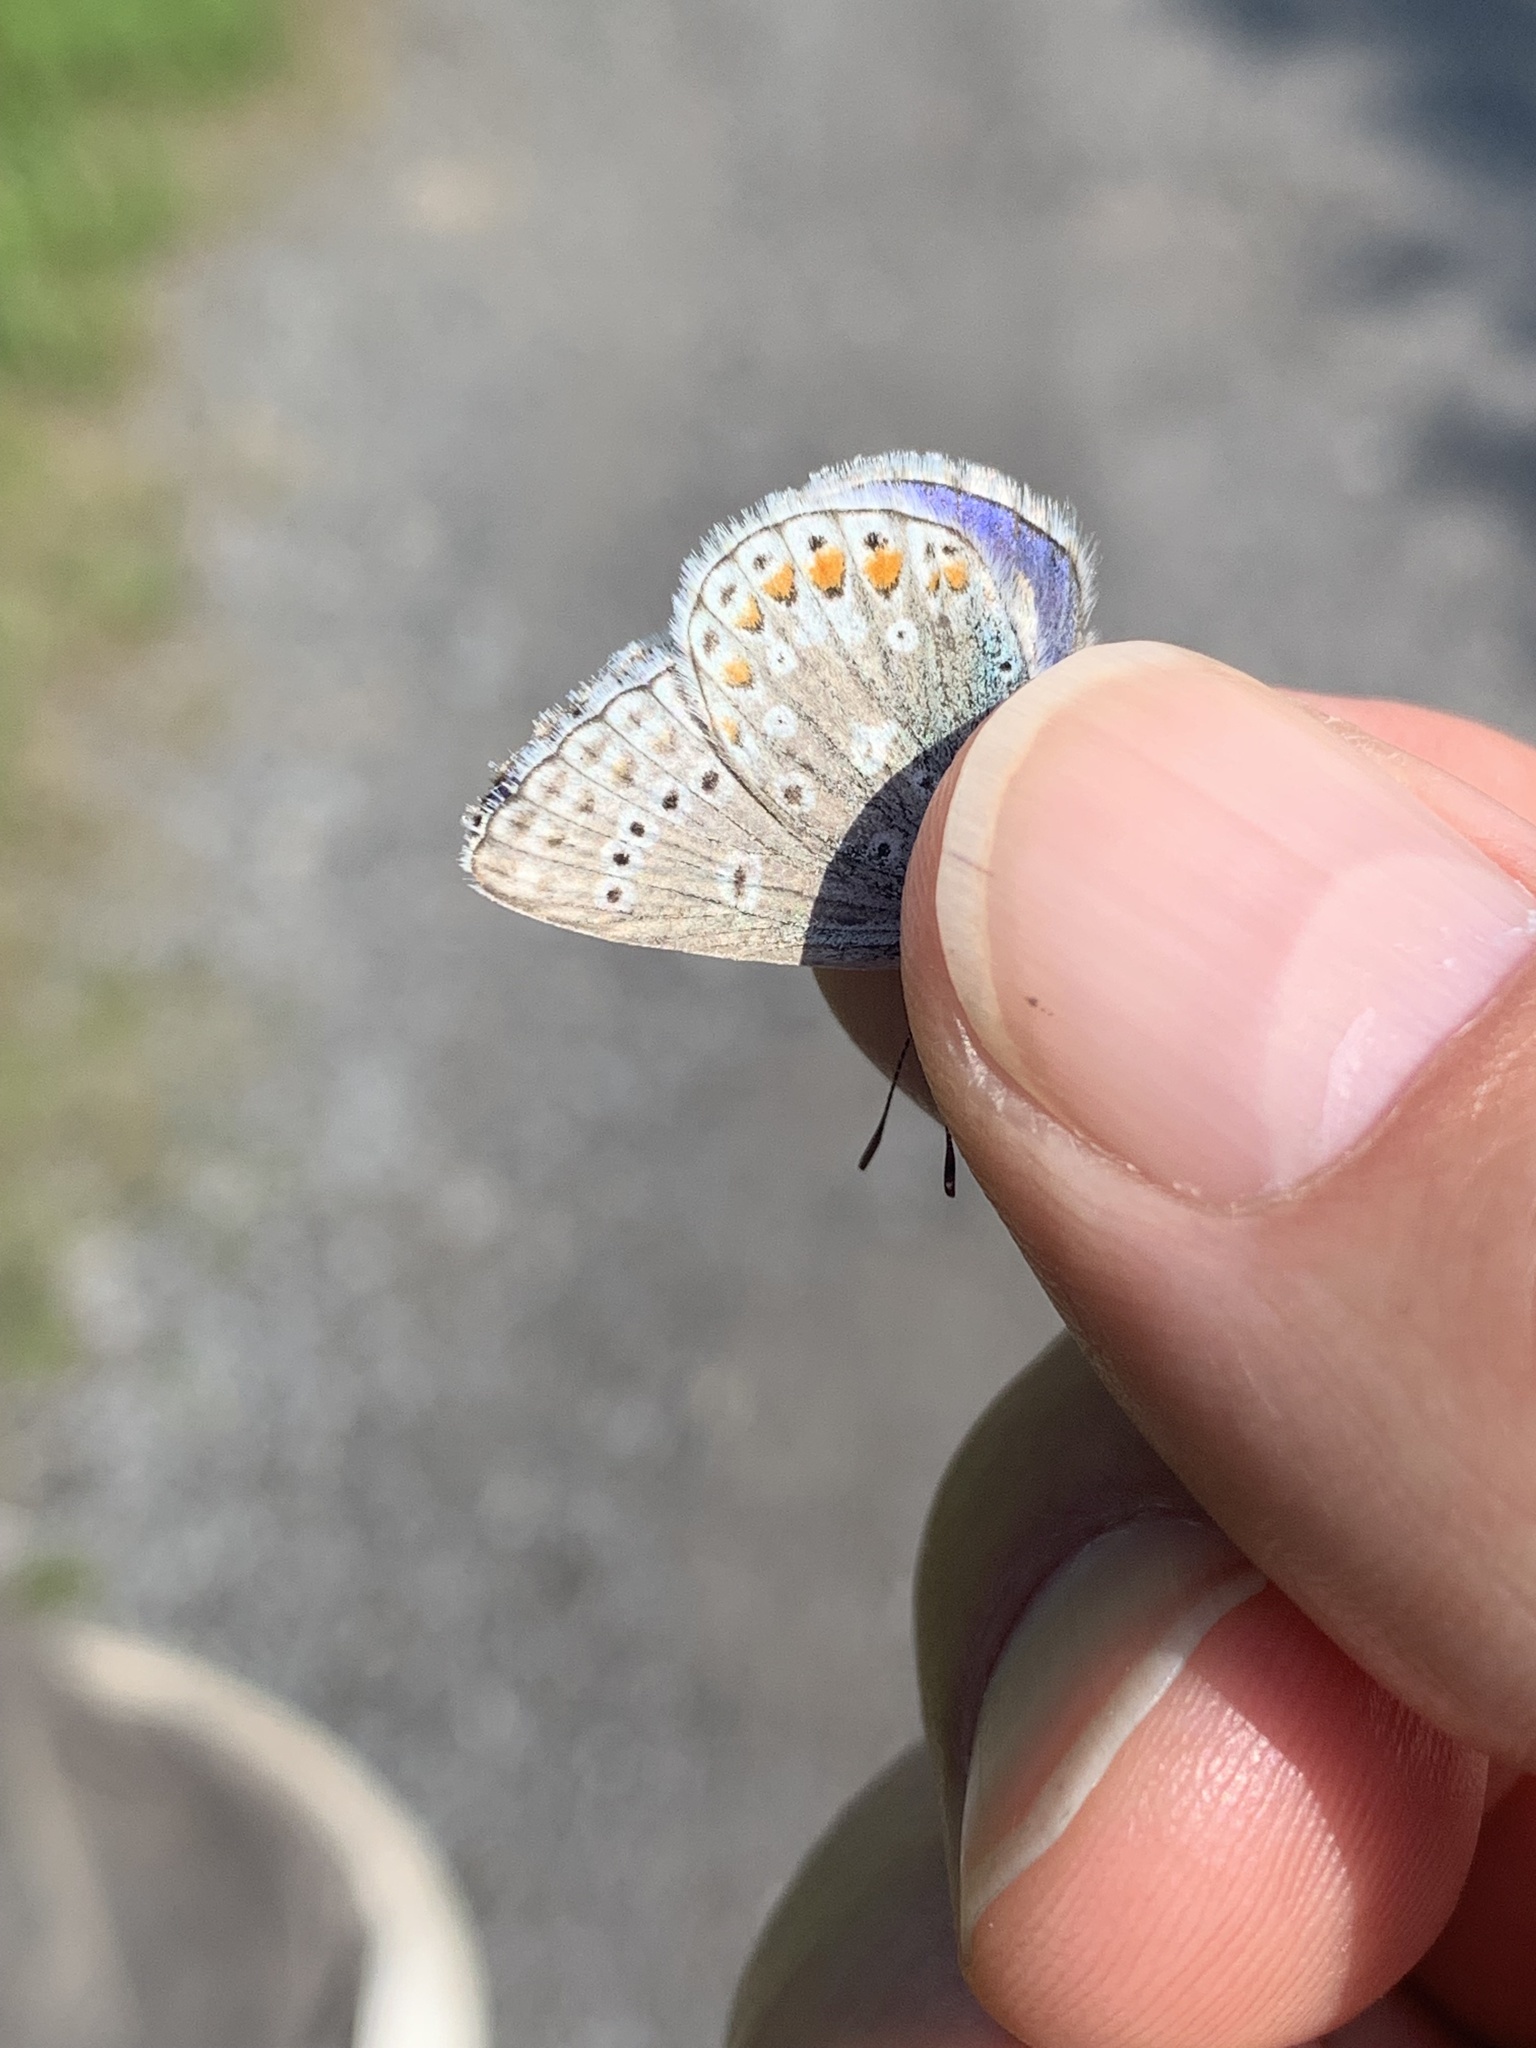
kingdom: Animalia
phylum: Arthropoda
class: Insecta
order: Lepidoptera
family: Lycaenidae
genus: Polyommatus
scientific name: Polyommatus icarus
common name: Common blue
